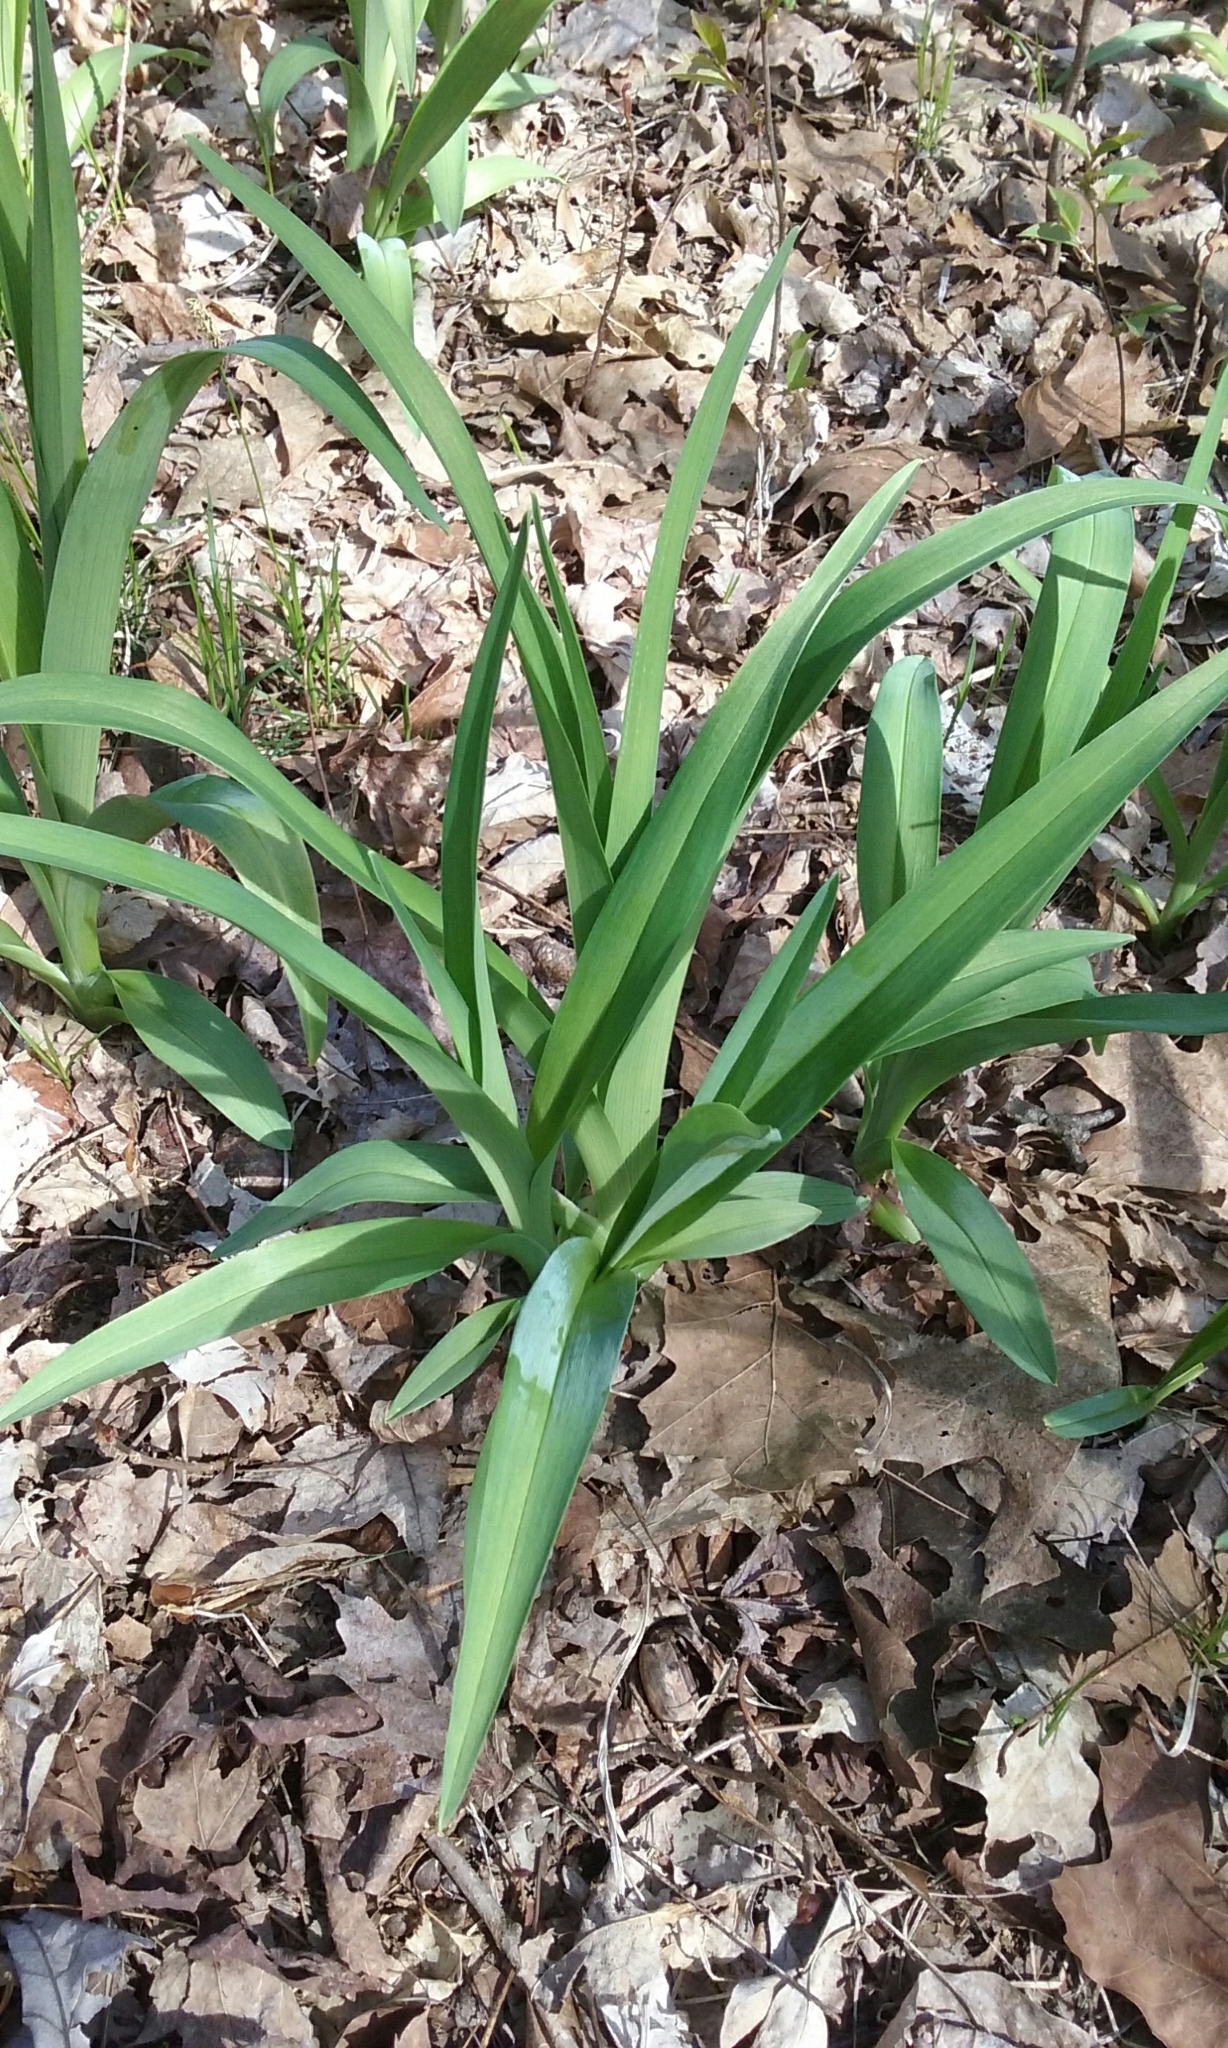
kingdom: Plantae
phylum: Tracheophyta
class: Liliopsida
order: Asparagales
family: Asphodelaceae
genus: Hemerocallis
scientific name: Hemerocallis
